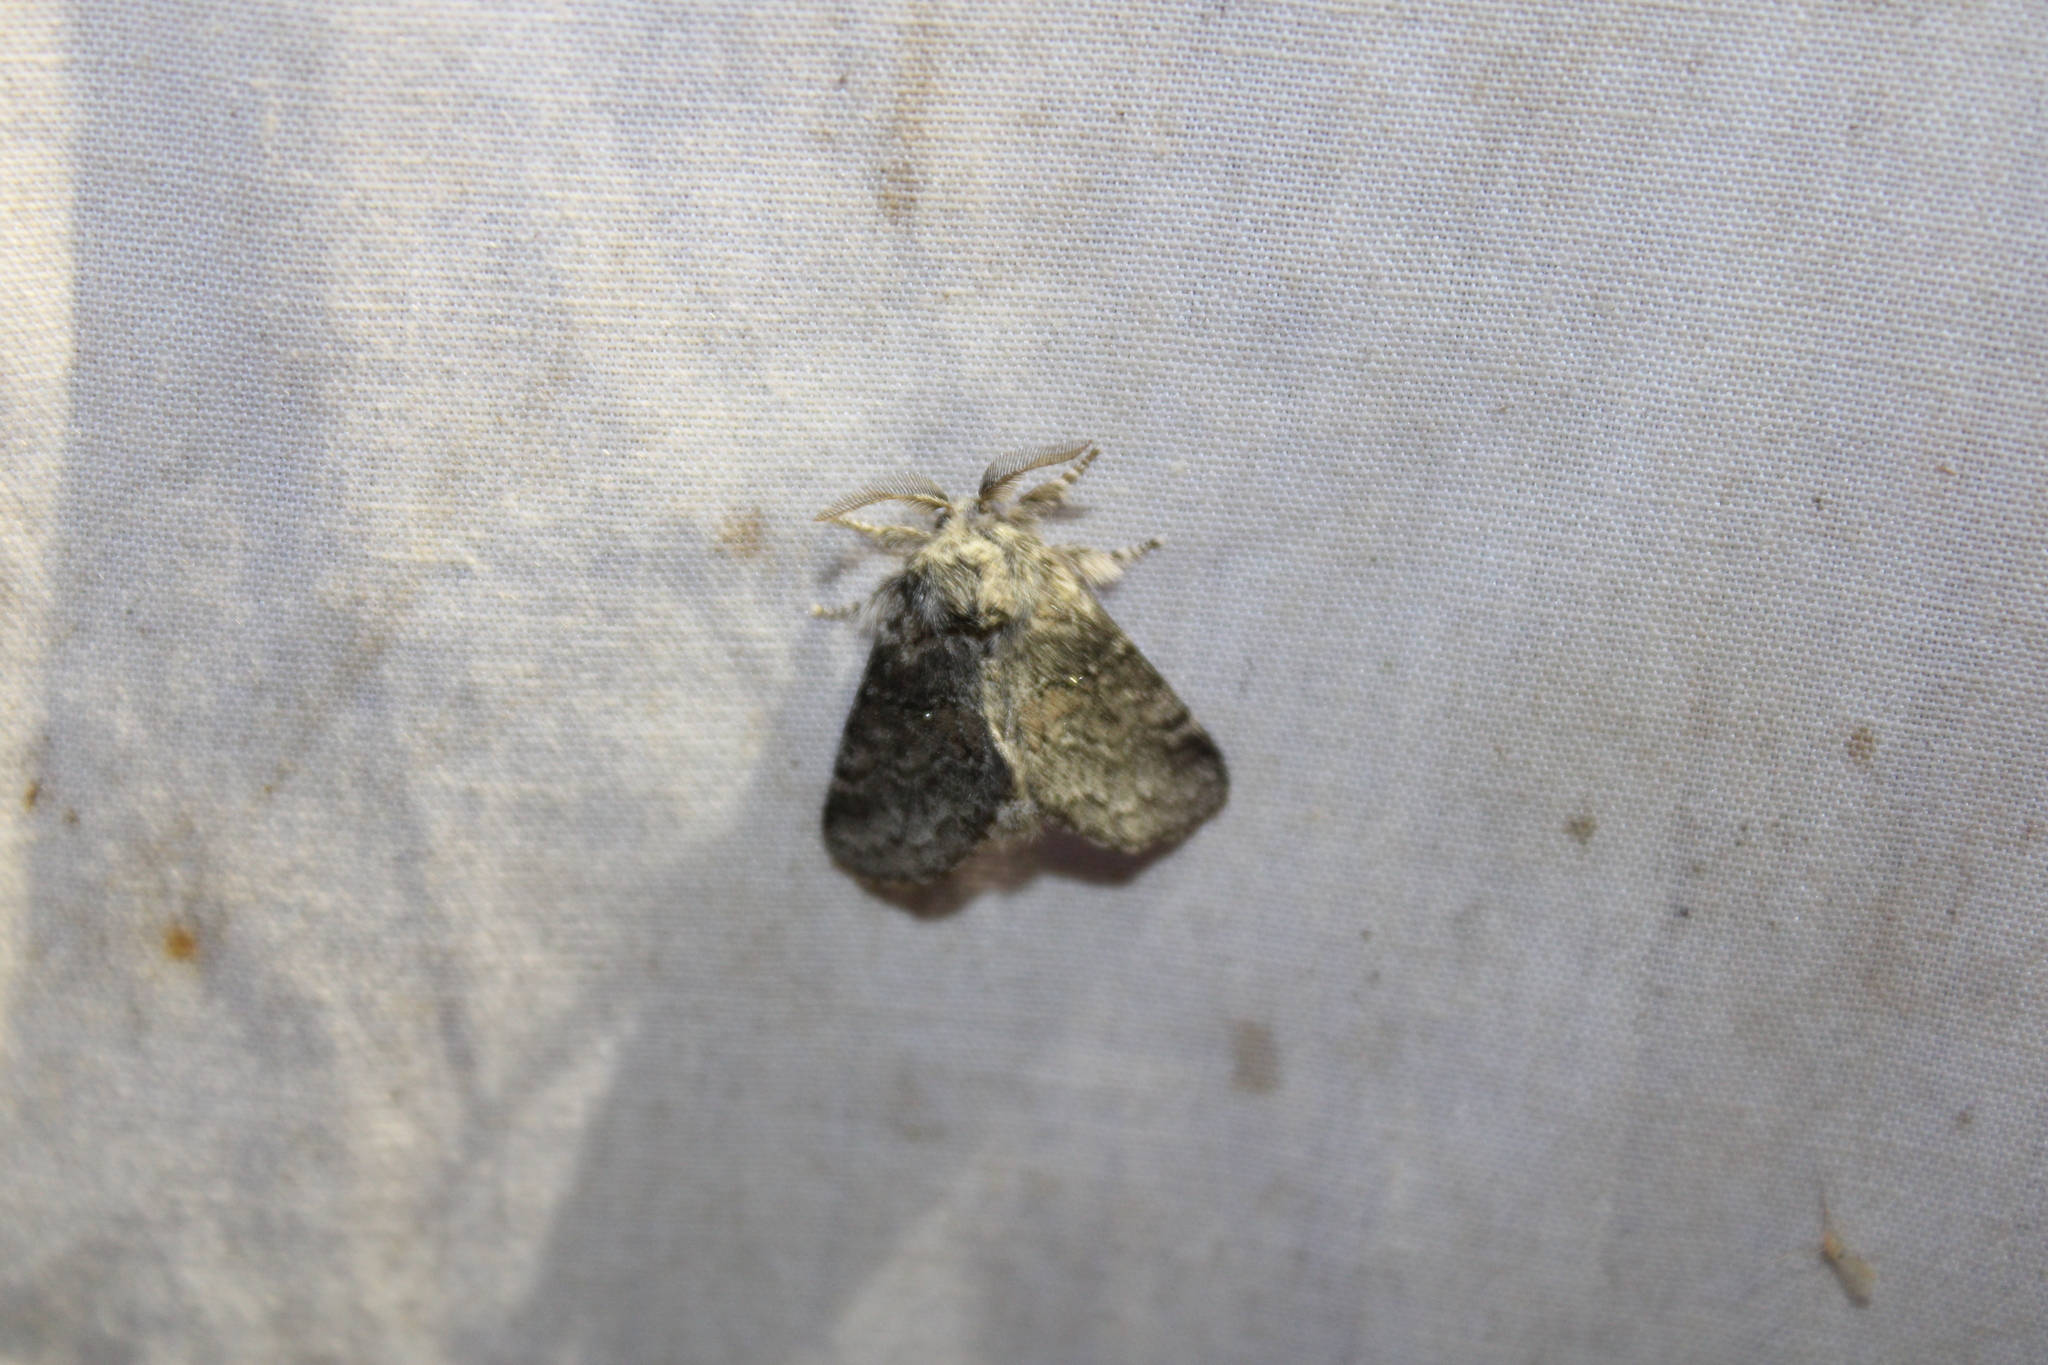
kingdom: Animalia
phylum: Arthropoda
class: Insecta
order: Lepidoptera
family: Notodontidae
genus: Gluphisia
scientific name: Gluphisia septentrionis
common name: Common gluphisia
